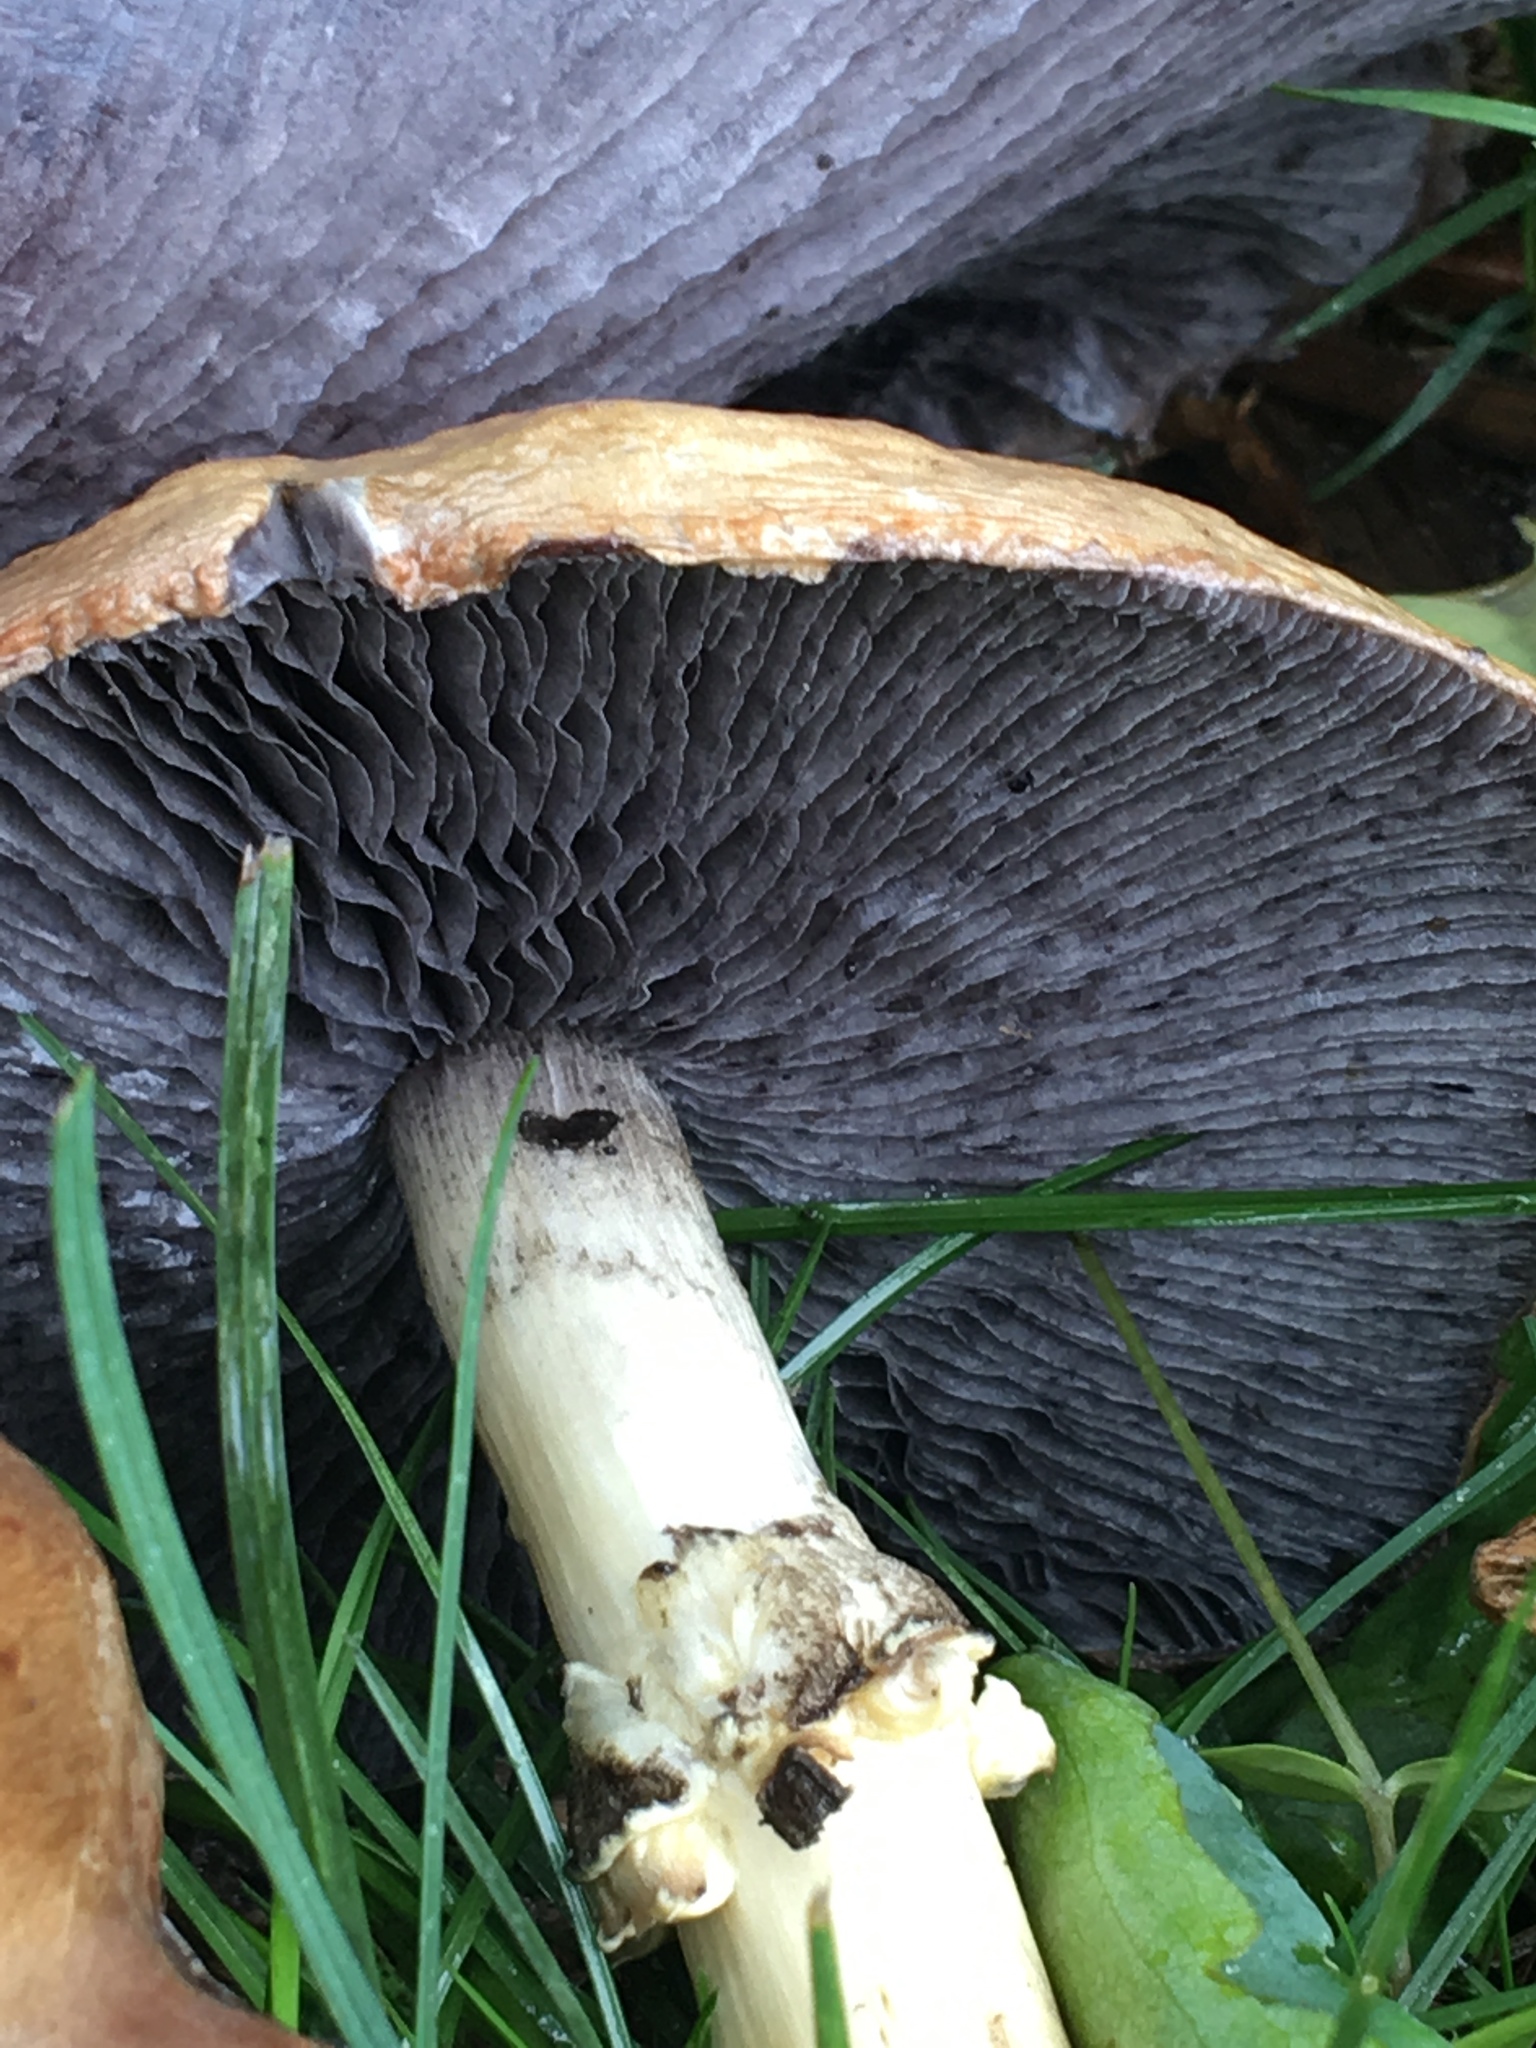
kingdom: Fungi
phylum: Basidiomycota
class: Agaricomycetes
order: Agaricales
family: Strophariaceae
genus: Stropharia
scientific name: Stropharia rugosoannulata
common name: Wine roundhead
